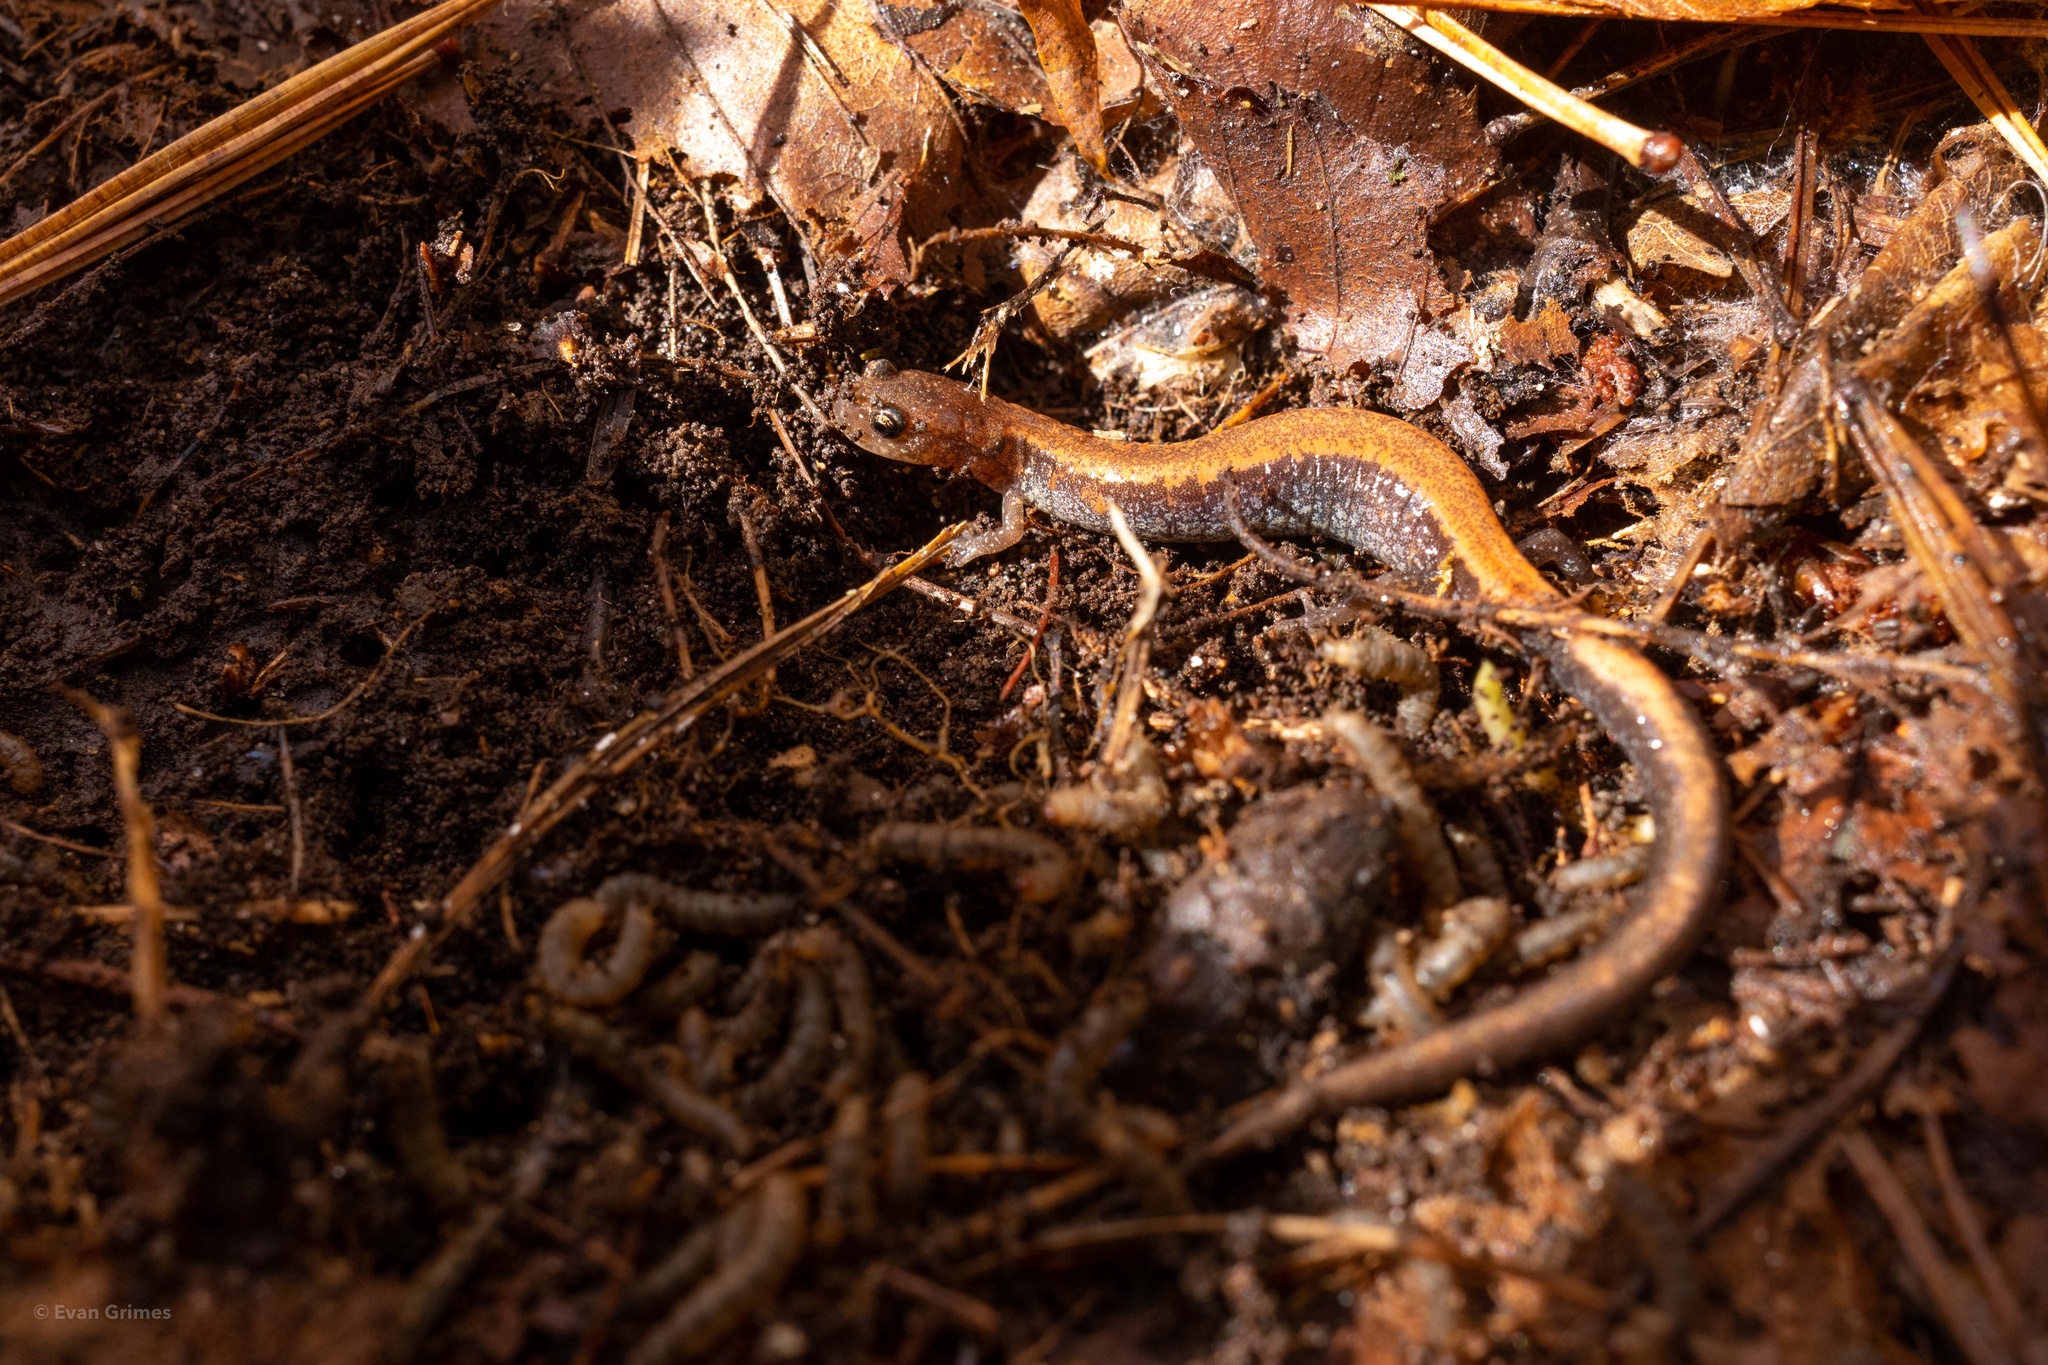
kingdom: Animalia
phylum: Chordata
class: Amphibia
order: Caudata
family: Plethodontidae
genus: Plethodon
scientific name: Plethodon cinereus
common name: Redback salamander
